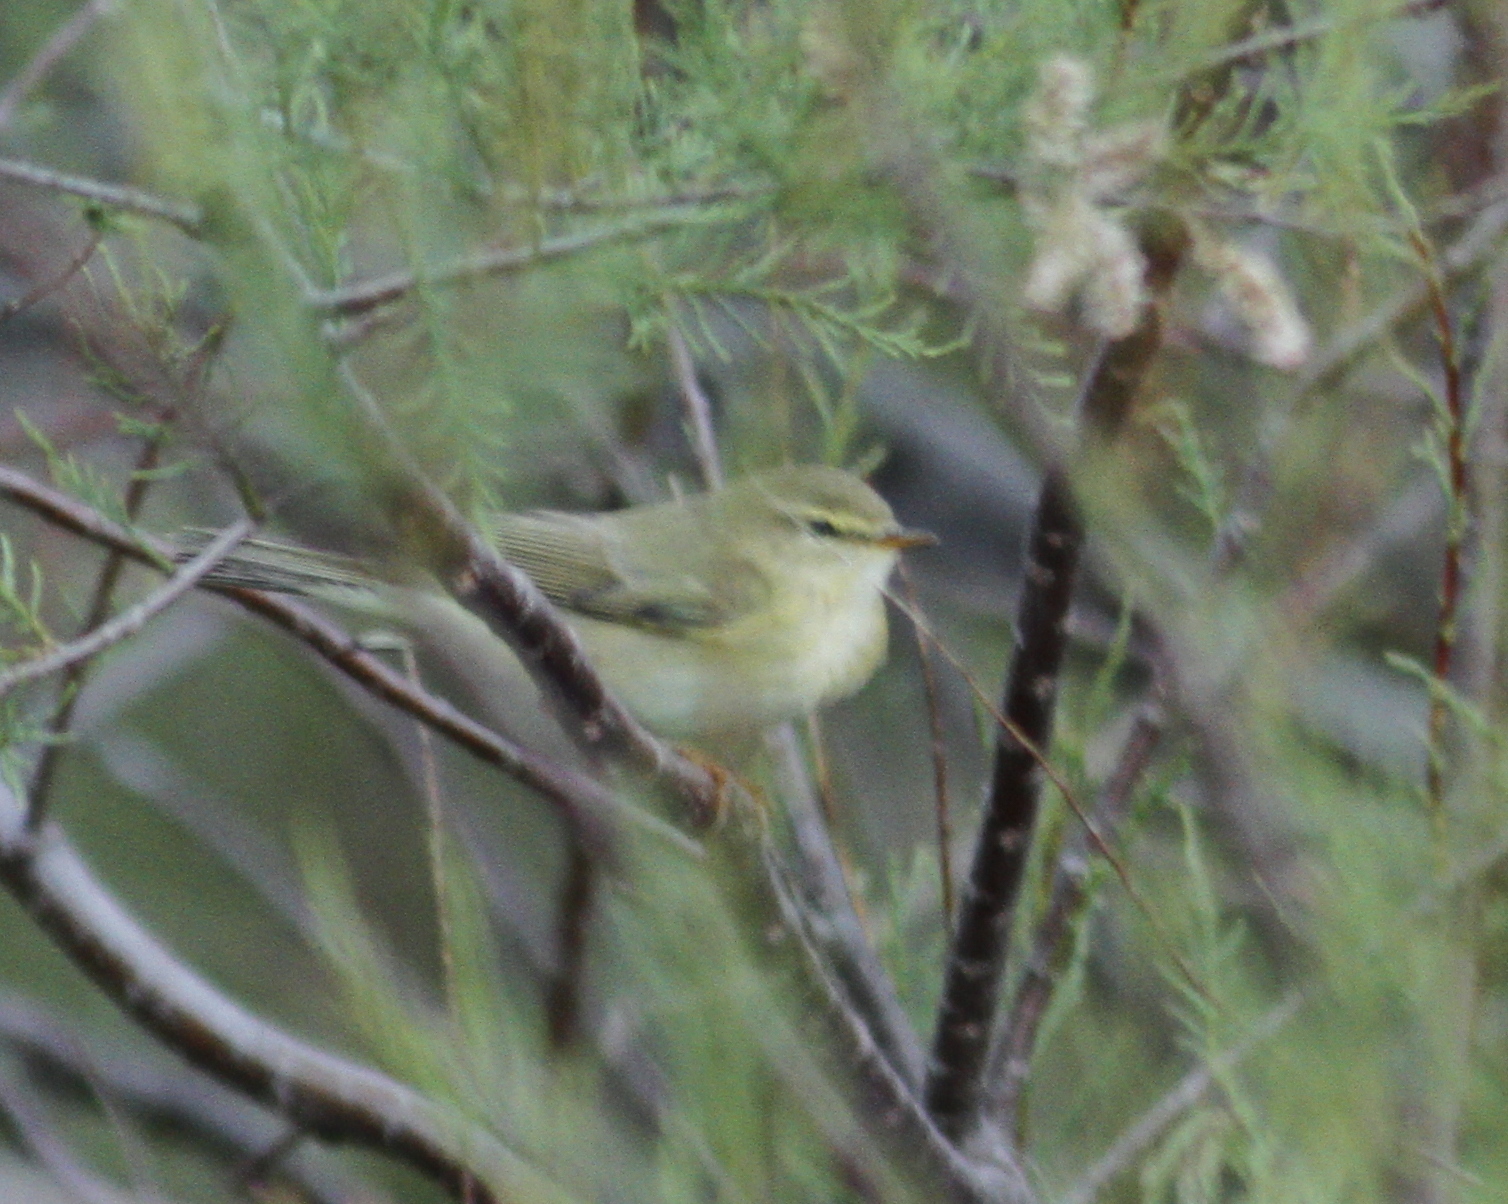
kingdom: Animalia
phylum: Chordata
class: Aves
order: Passeriformes
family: Phylloscopidae
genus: Phylloscopus
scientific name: Phylloscopus ibericus
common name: Iberian chiffchaff
